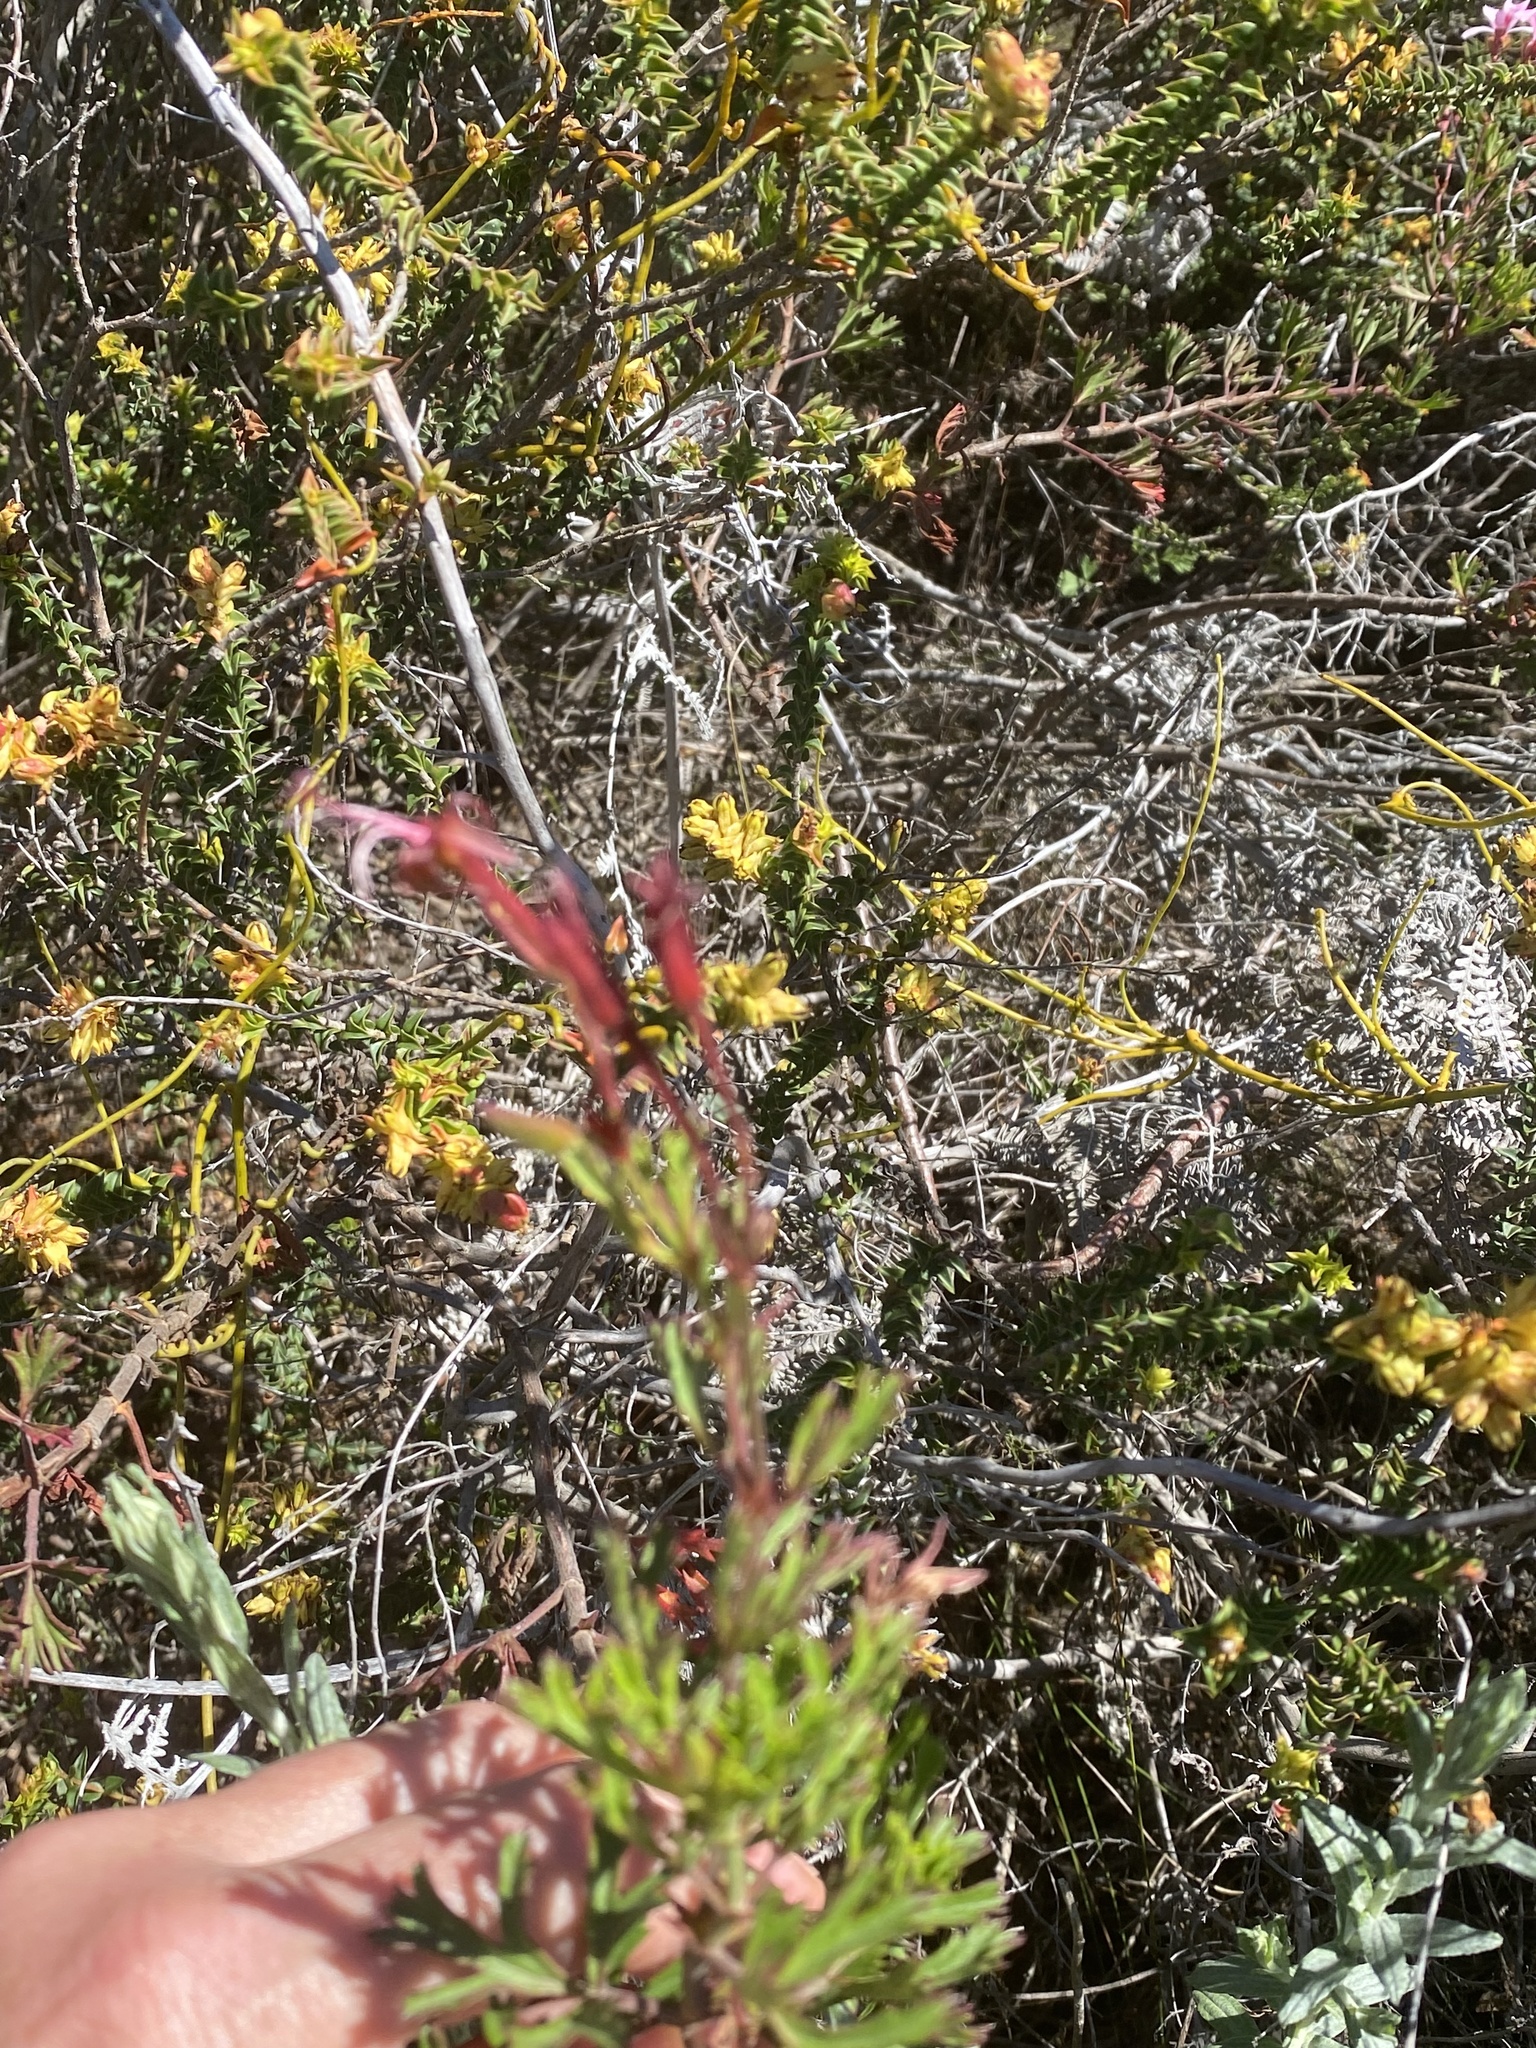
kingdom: Plantae
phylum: Tracheophyta
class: Magnoliopsida
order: Geraniales
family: Geraniaceae
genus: Pelargonium
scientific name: Pelargonium ternatum
